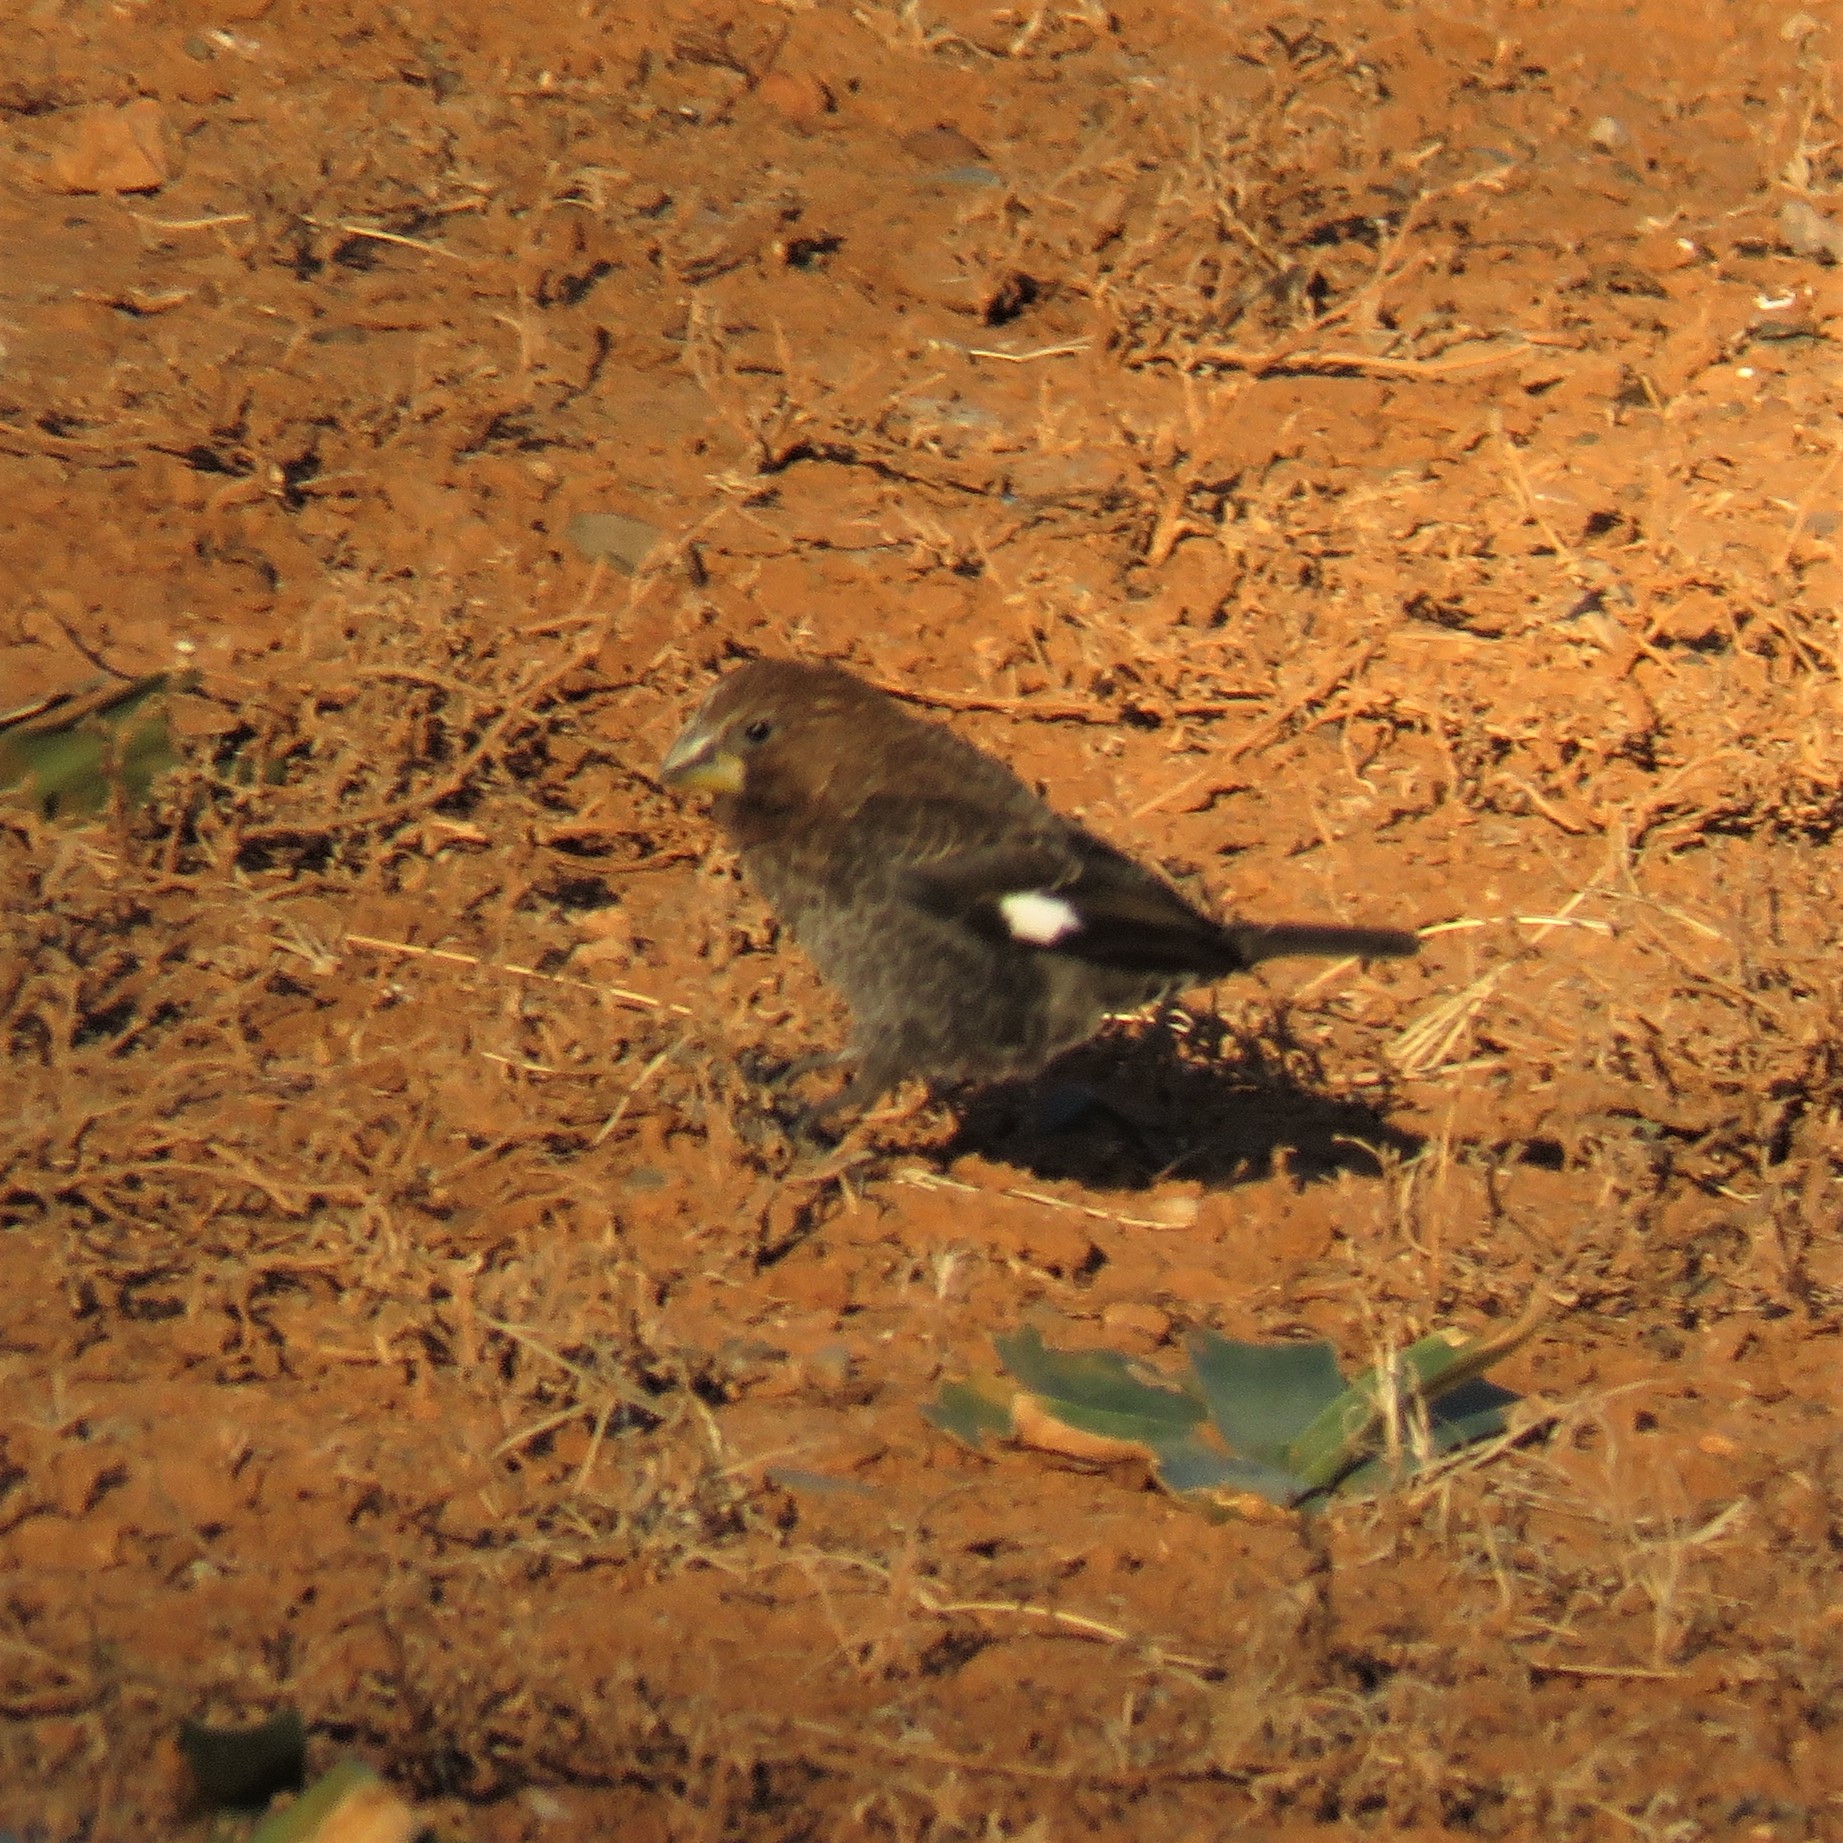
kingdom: Animalia
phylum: Chordata
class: Aves
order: Passeriformes
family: Ploceidae
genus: Amblyospiza
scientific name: Amblyospiza albifrons
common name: Thick-billed weaver
